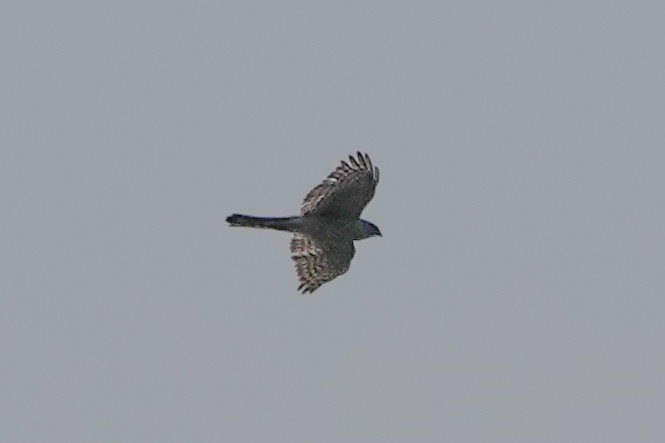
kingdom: Animalia
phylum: Chordata
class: Aves
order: Accipitriformes
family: Accipitridae
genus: Accipiter
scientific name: Accipiter nisus
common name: Eurasian sparrowhawk
